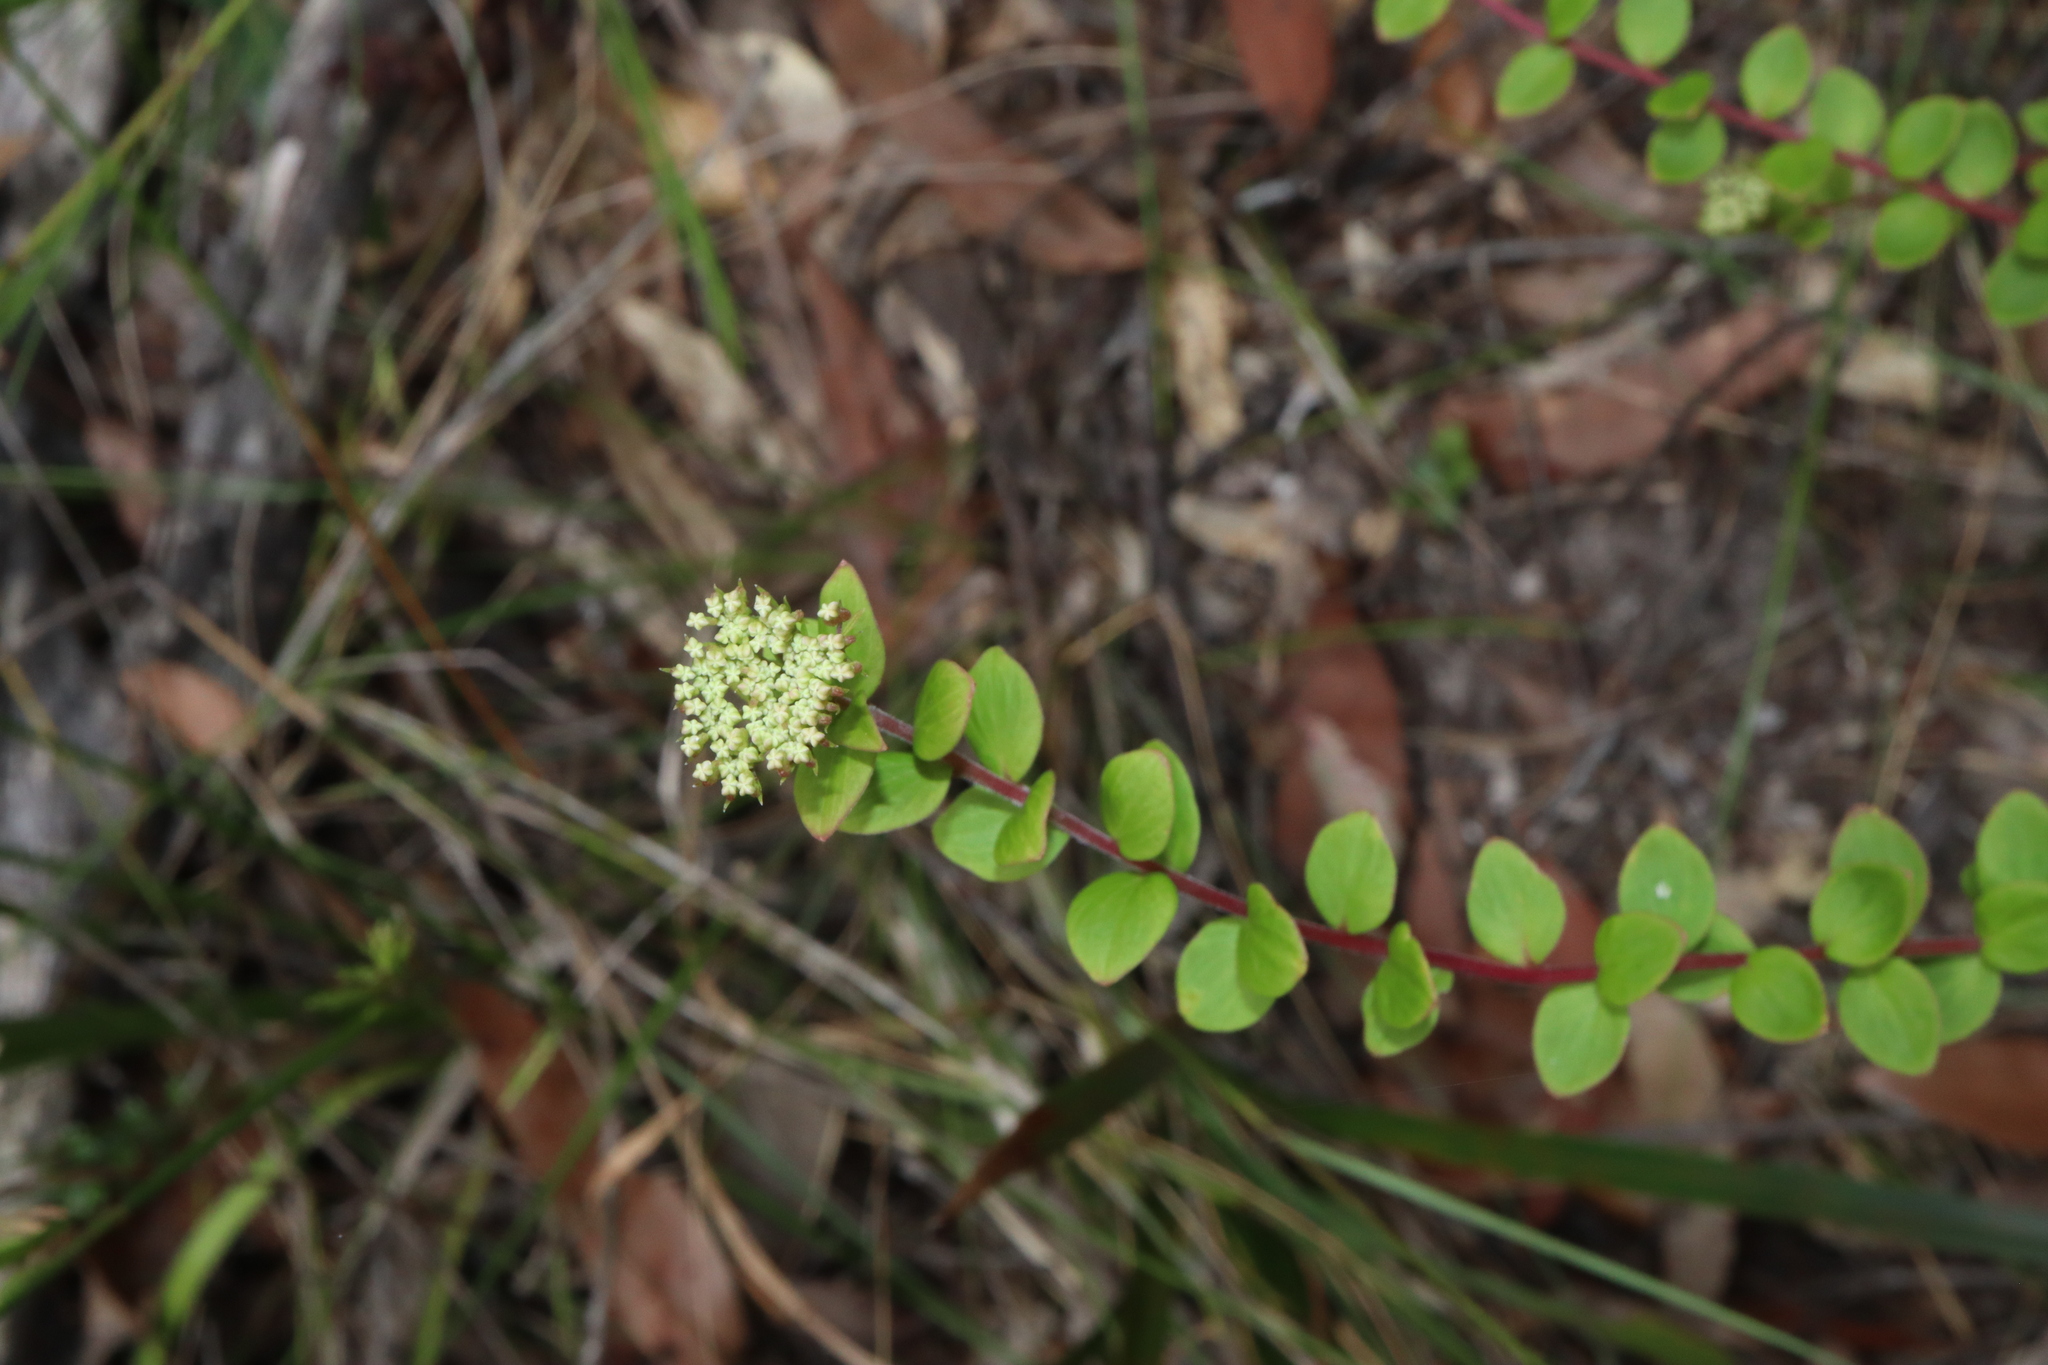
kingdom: Plantae
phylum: Tracheophyta
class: Magnoliopsida
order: Apiales
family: Apiaceae
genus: Platysace
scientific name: Platysace lanceolata
